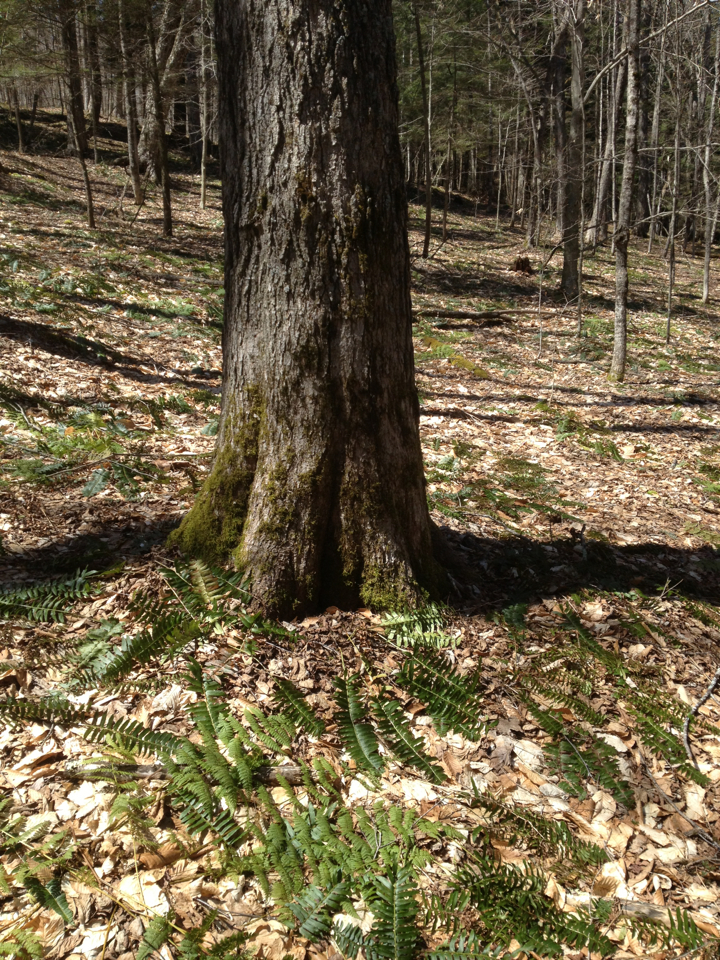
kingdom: Plantae
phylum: Tracheophyta
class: Magnoliopsida
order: Sapindales
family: Sapindaceae
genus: Acer
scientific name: Acer saccharum
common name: Sugar maple
